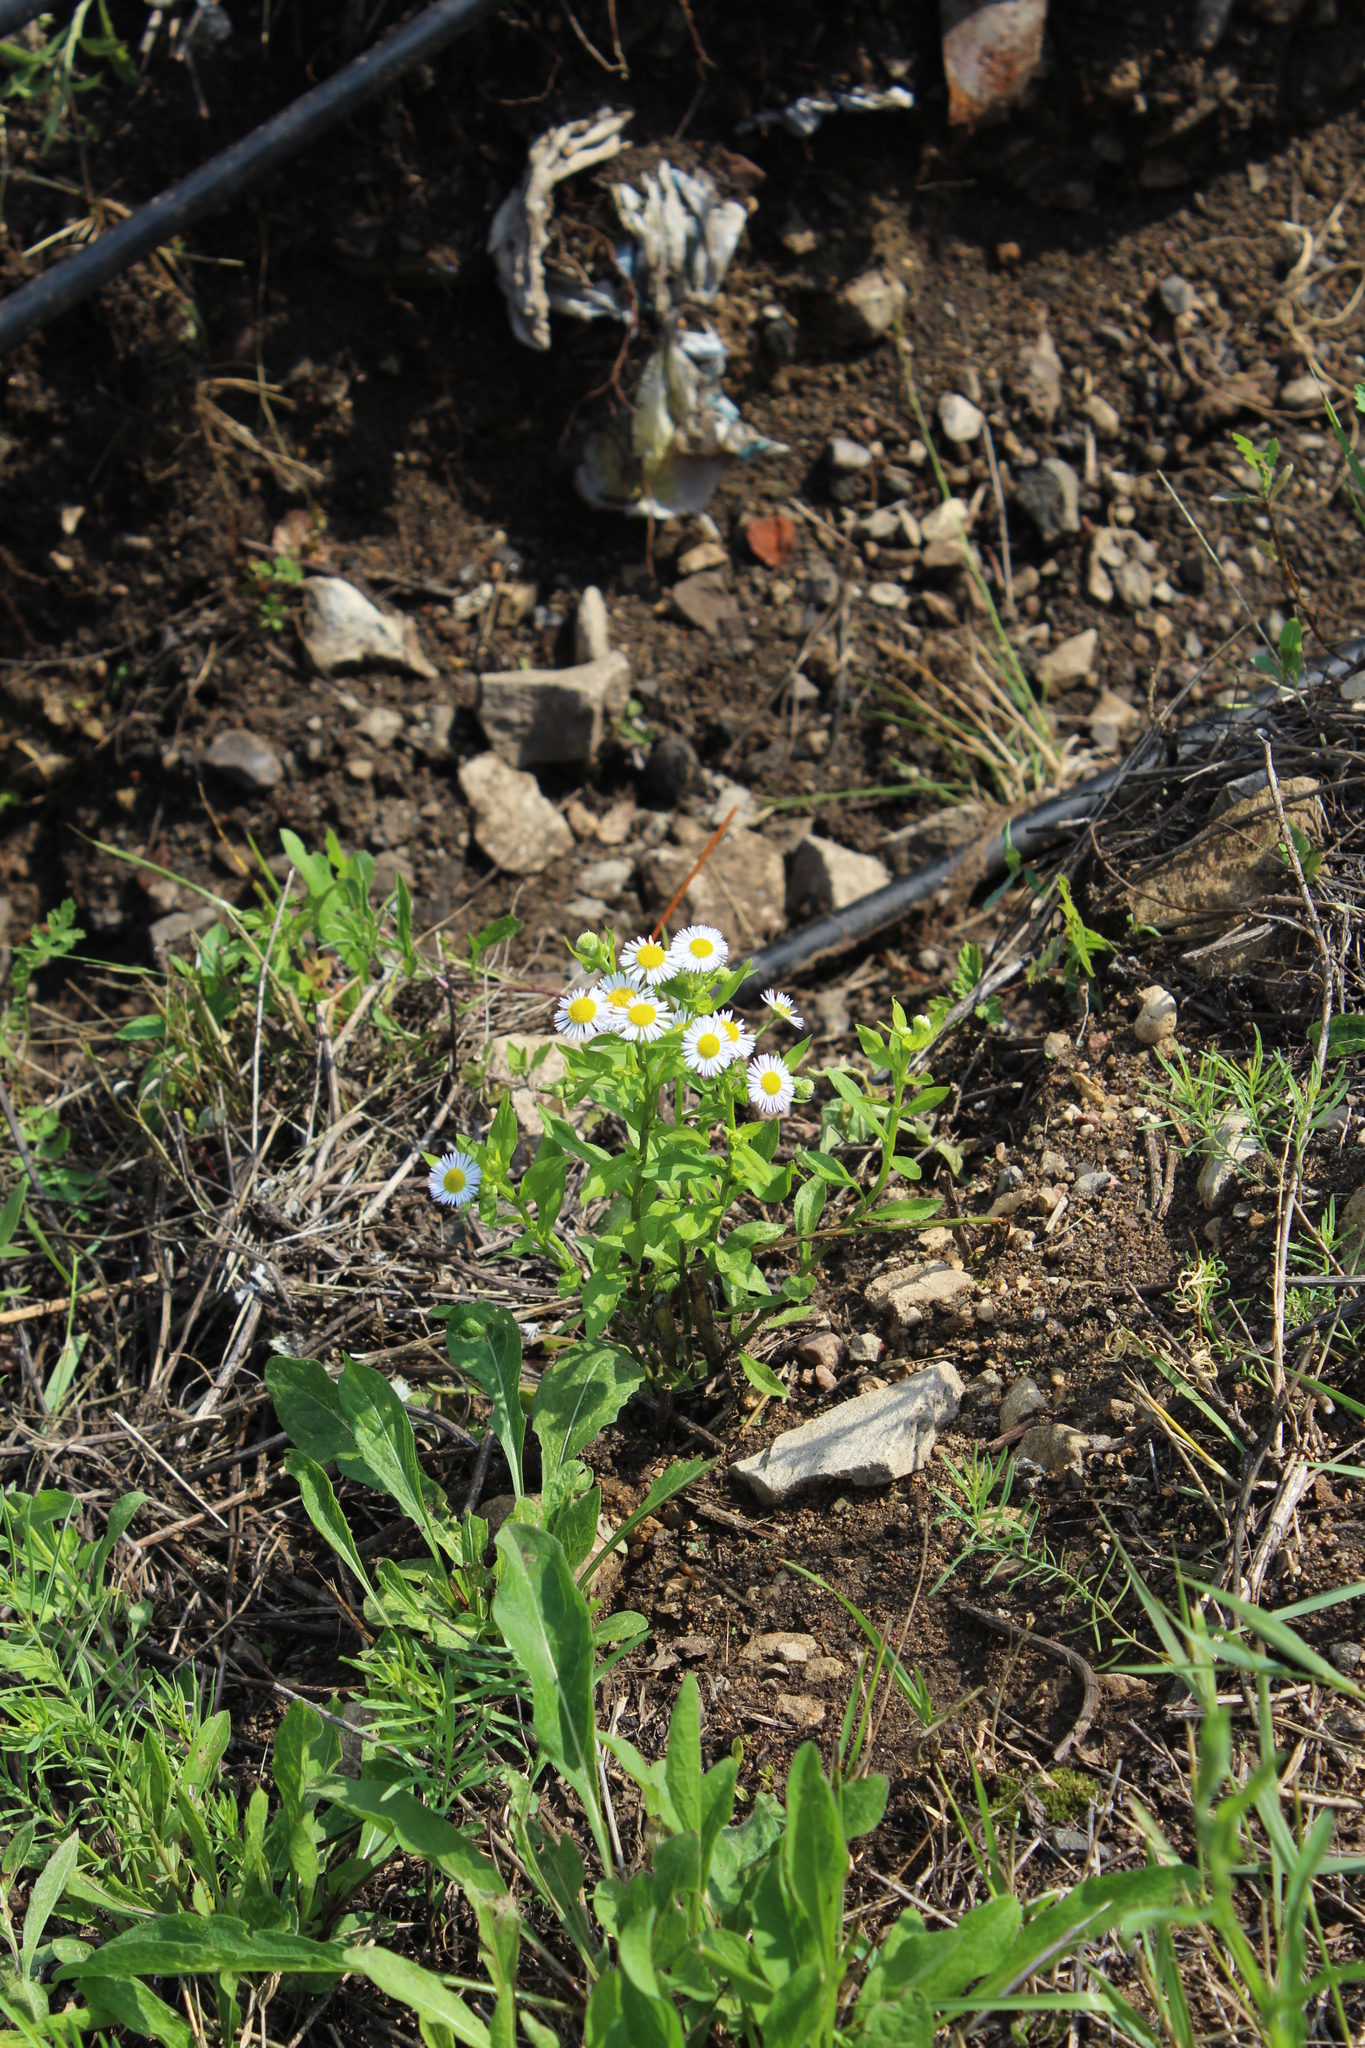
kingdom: Plantae
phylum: Tracheophyta
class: Magnoliopsida
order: Asterales
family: Asteraceae
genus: Erigeron
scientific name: Erigeron annuus
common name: Tall fleabane
